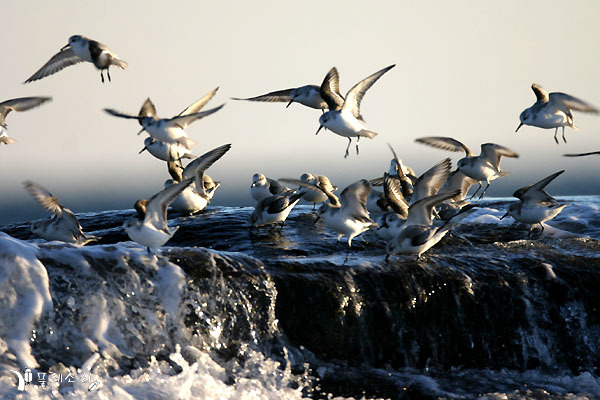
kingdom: Animalia
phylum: Chordata
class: Aves
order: Charadriiformes
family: Scolopacidae
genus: Calidris
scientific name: Calidris alba
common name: Sanderling
